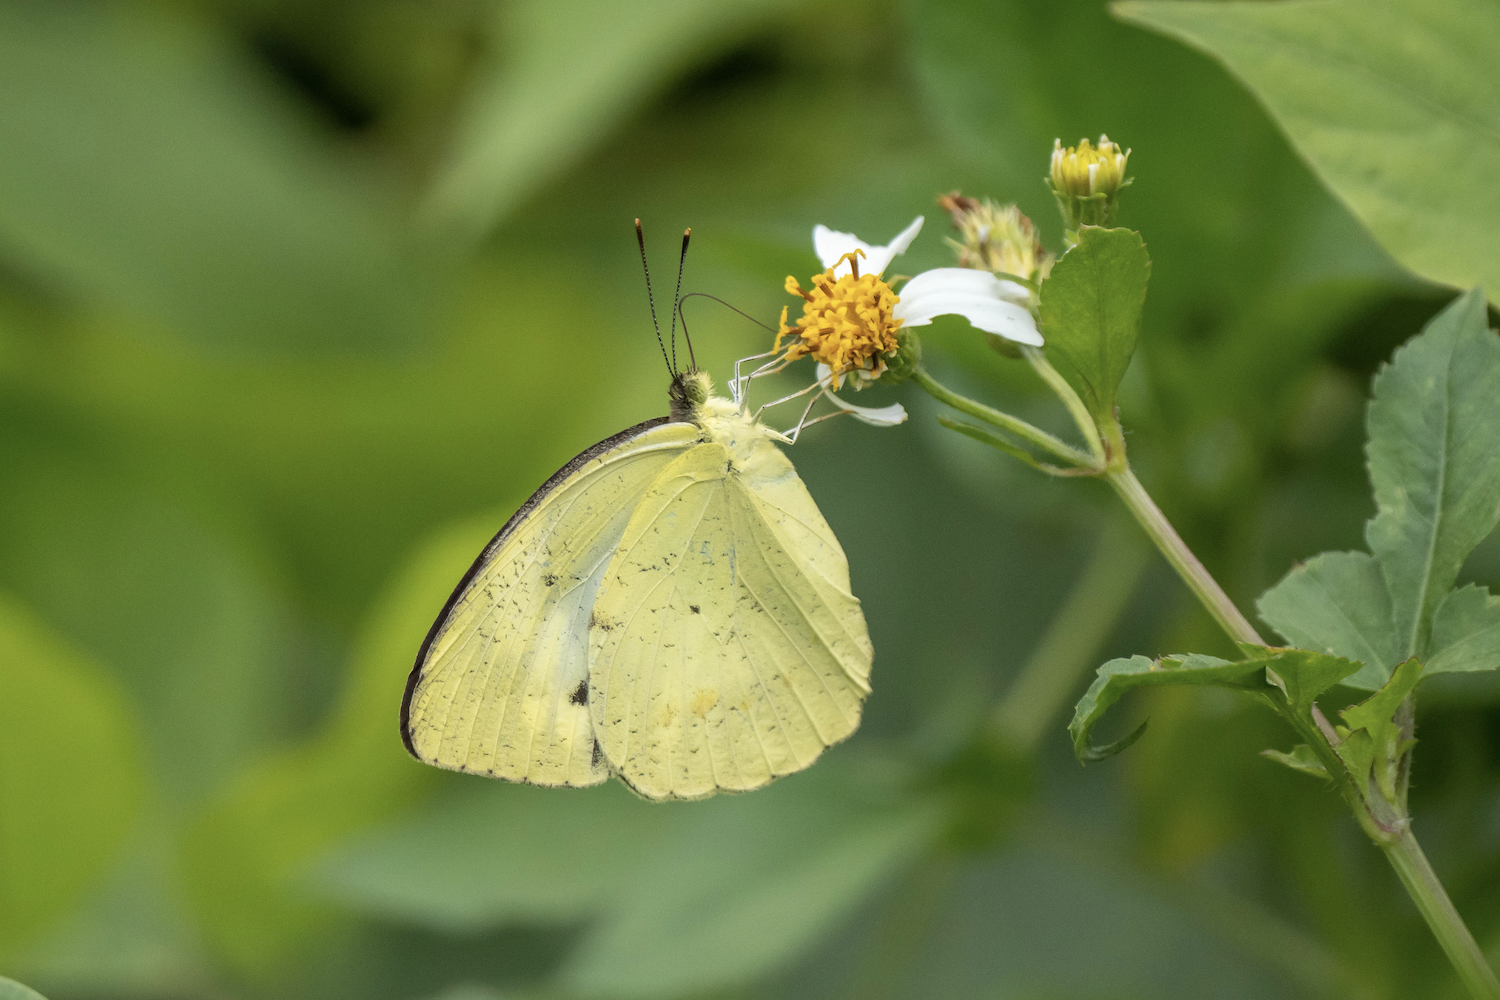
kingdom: Animalia
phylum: Arthropoda
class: Insecta
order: Lepidoptera
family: Pieridae
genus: Ixias
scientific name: Ixias pyrene
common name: Yellow orange tip
